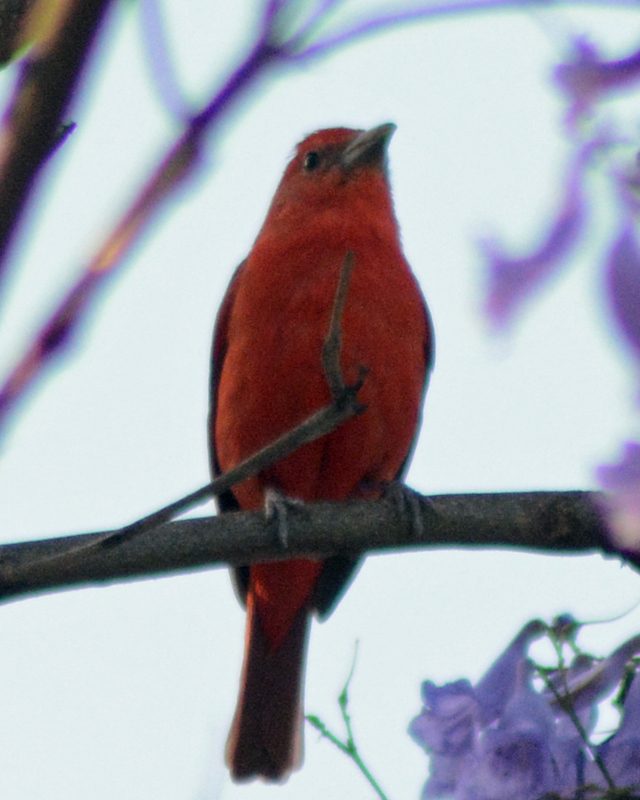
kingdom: Animalia
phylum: Chordata
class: Aves
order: Passeriformes
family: Cardinalidae
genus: Piranga
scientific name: Piranga flava
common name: Red tanager
